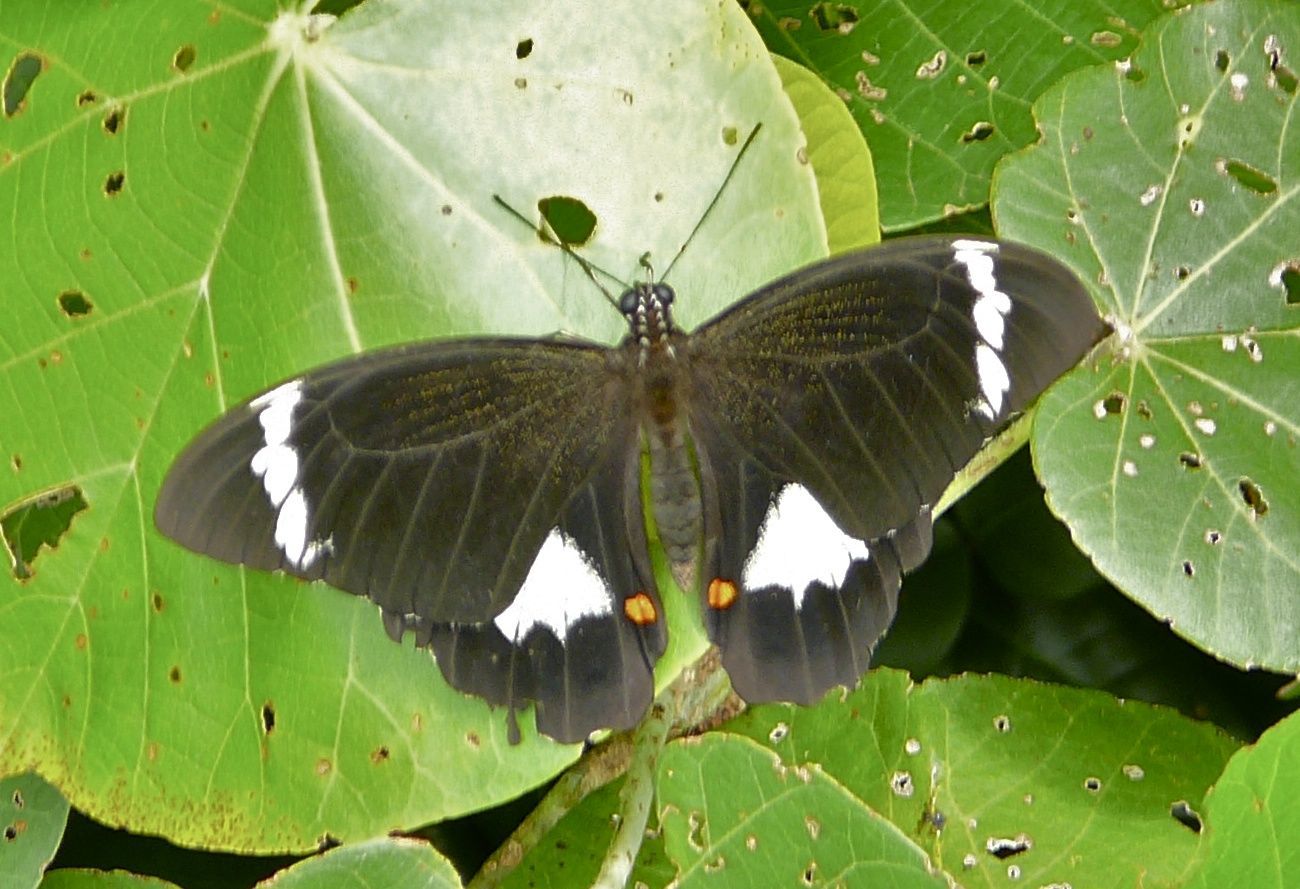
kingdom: Animalia
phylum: Arthropoda
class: Insecta
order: Lepidoptera
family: Papilionidae
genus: Papilio
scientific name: Papilio aegeus
